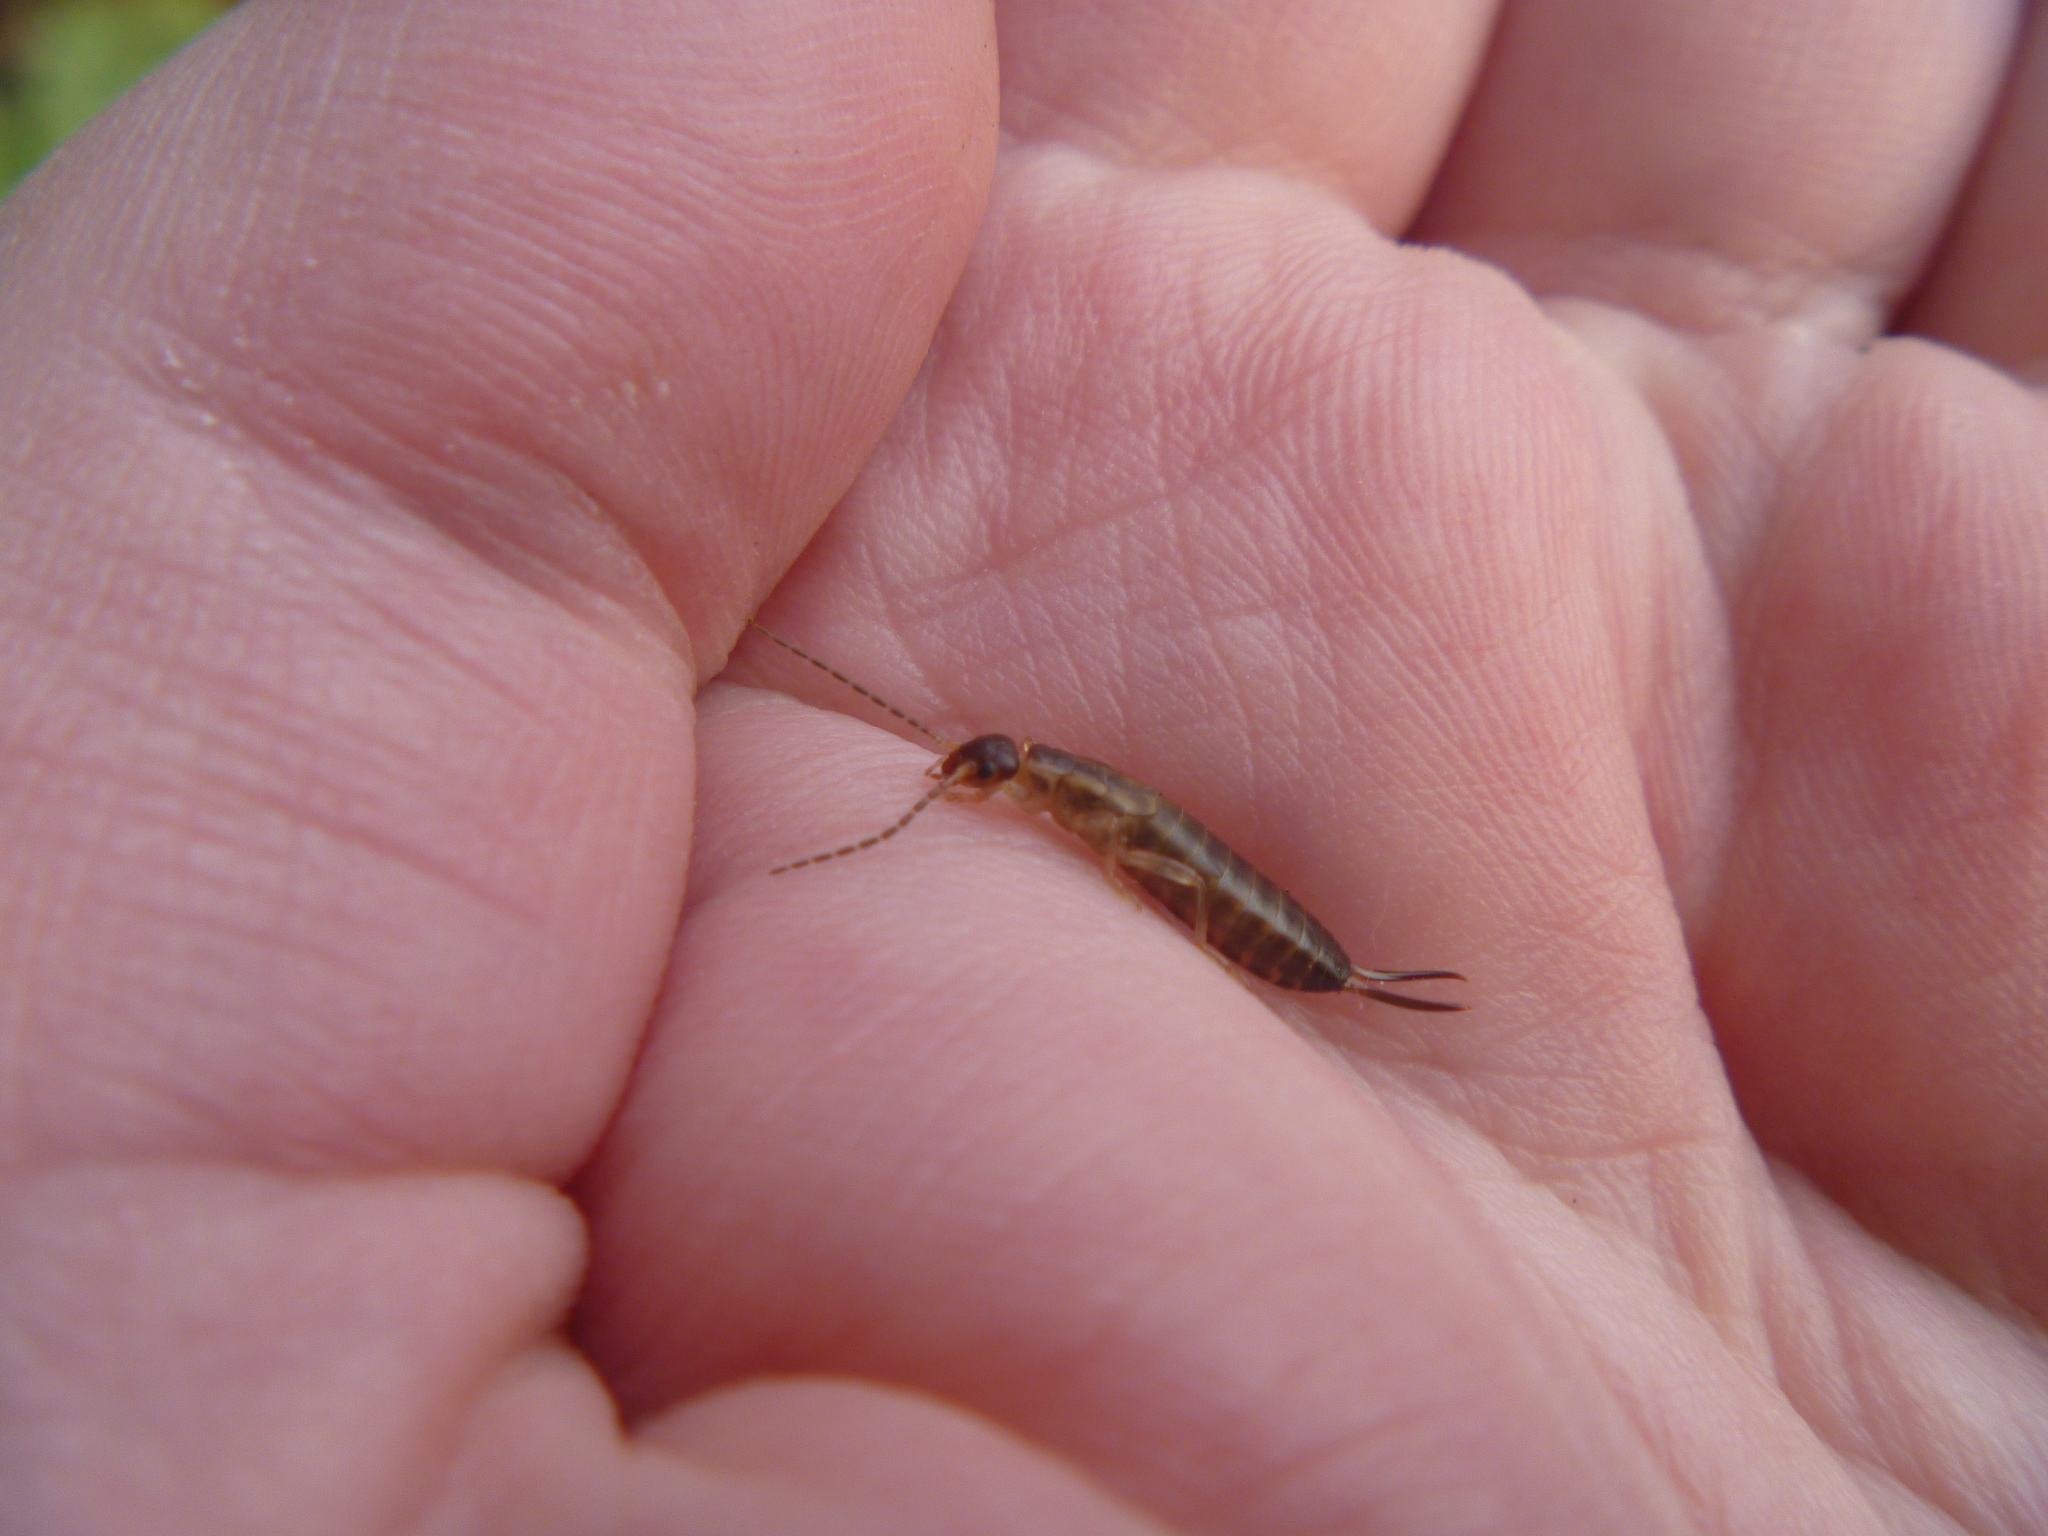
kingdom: Animalia
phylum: Arthropoda
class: Insecta
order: Dermaptera
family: Forficulidae
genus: Forficula
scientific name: Forficula
